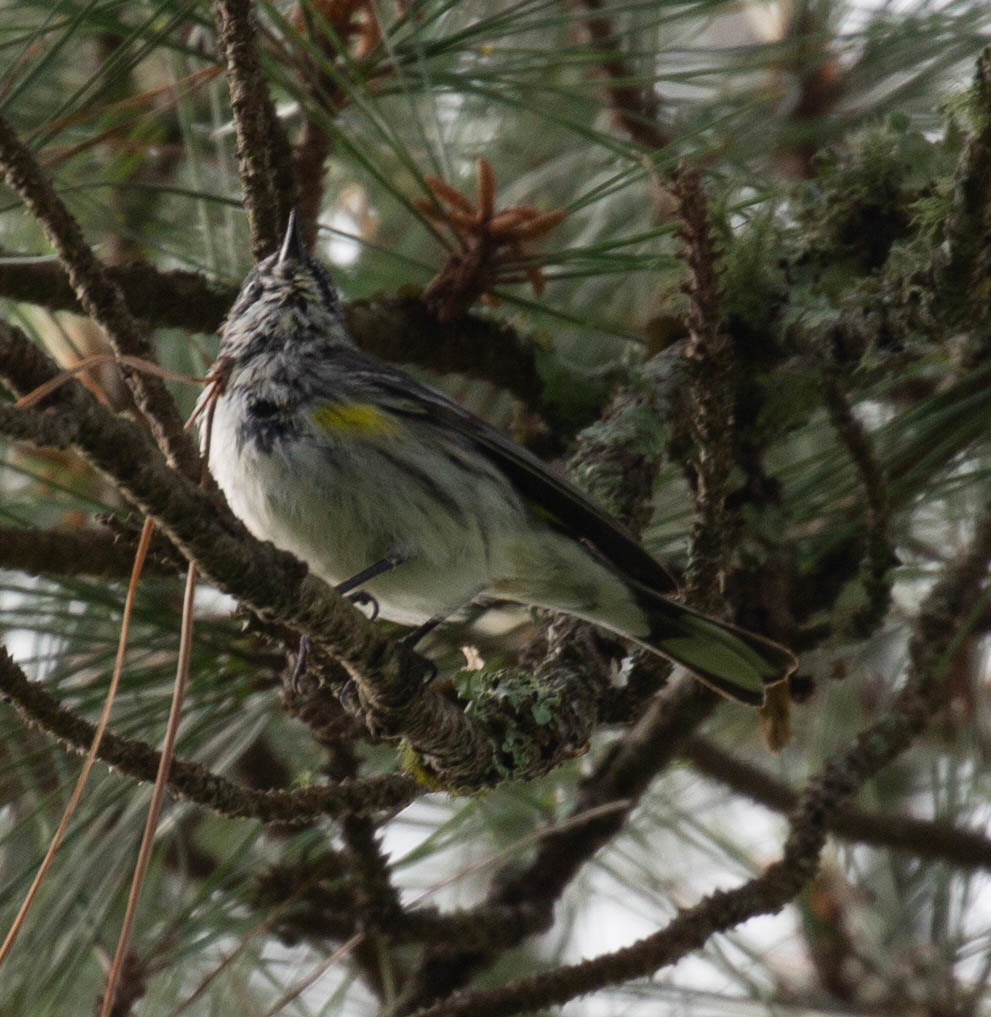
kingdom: Animalia
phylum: Chordata
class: Aves
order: Passeriformes
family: Parulidae
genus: Setophaga
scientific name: Setophaga coronata
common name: Myrtle warbler
